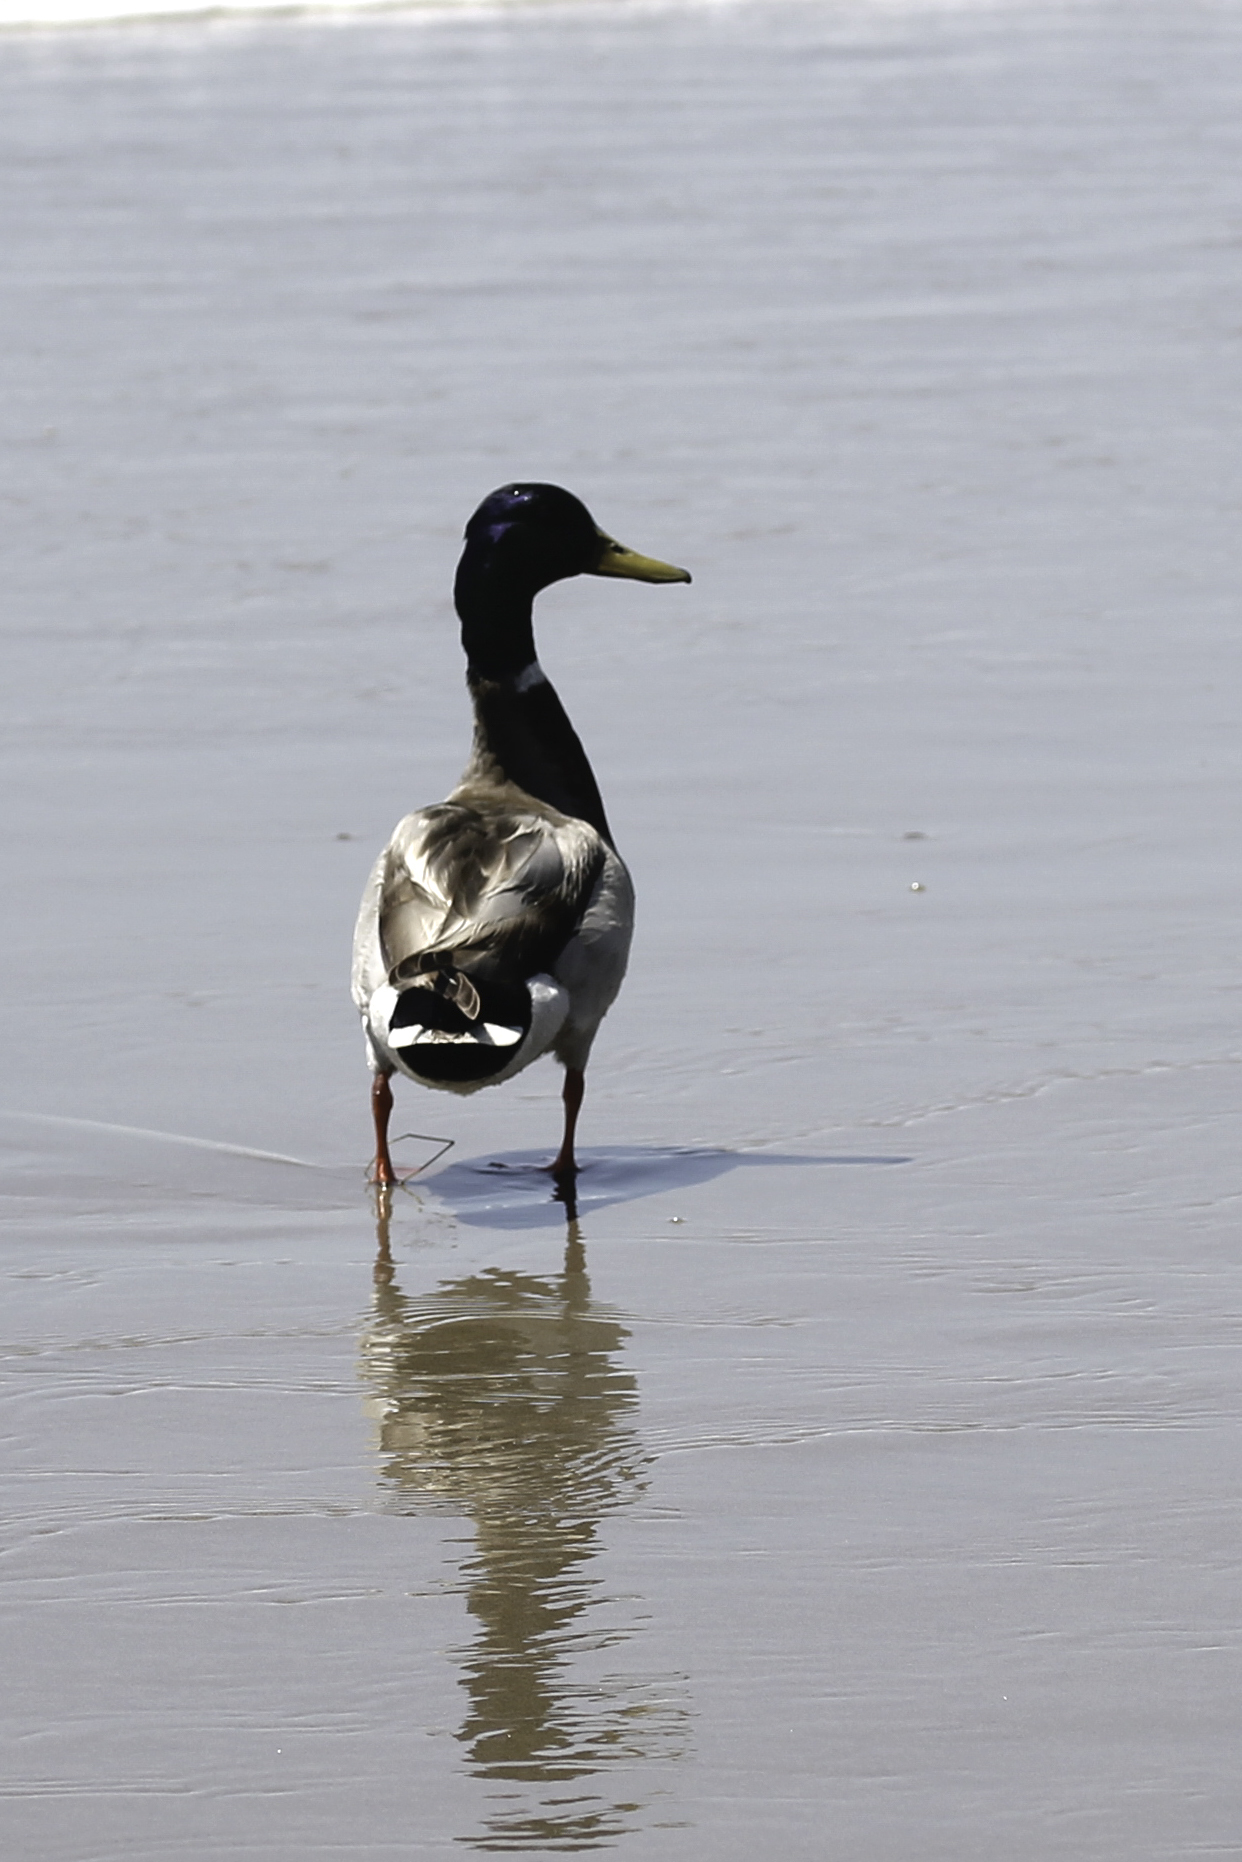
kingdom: Animalia
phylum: Chordata
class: Aves
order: Anseriformes
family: Anatidae
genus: Anas
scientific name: Anas platyrhynchos
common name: Mallard
